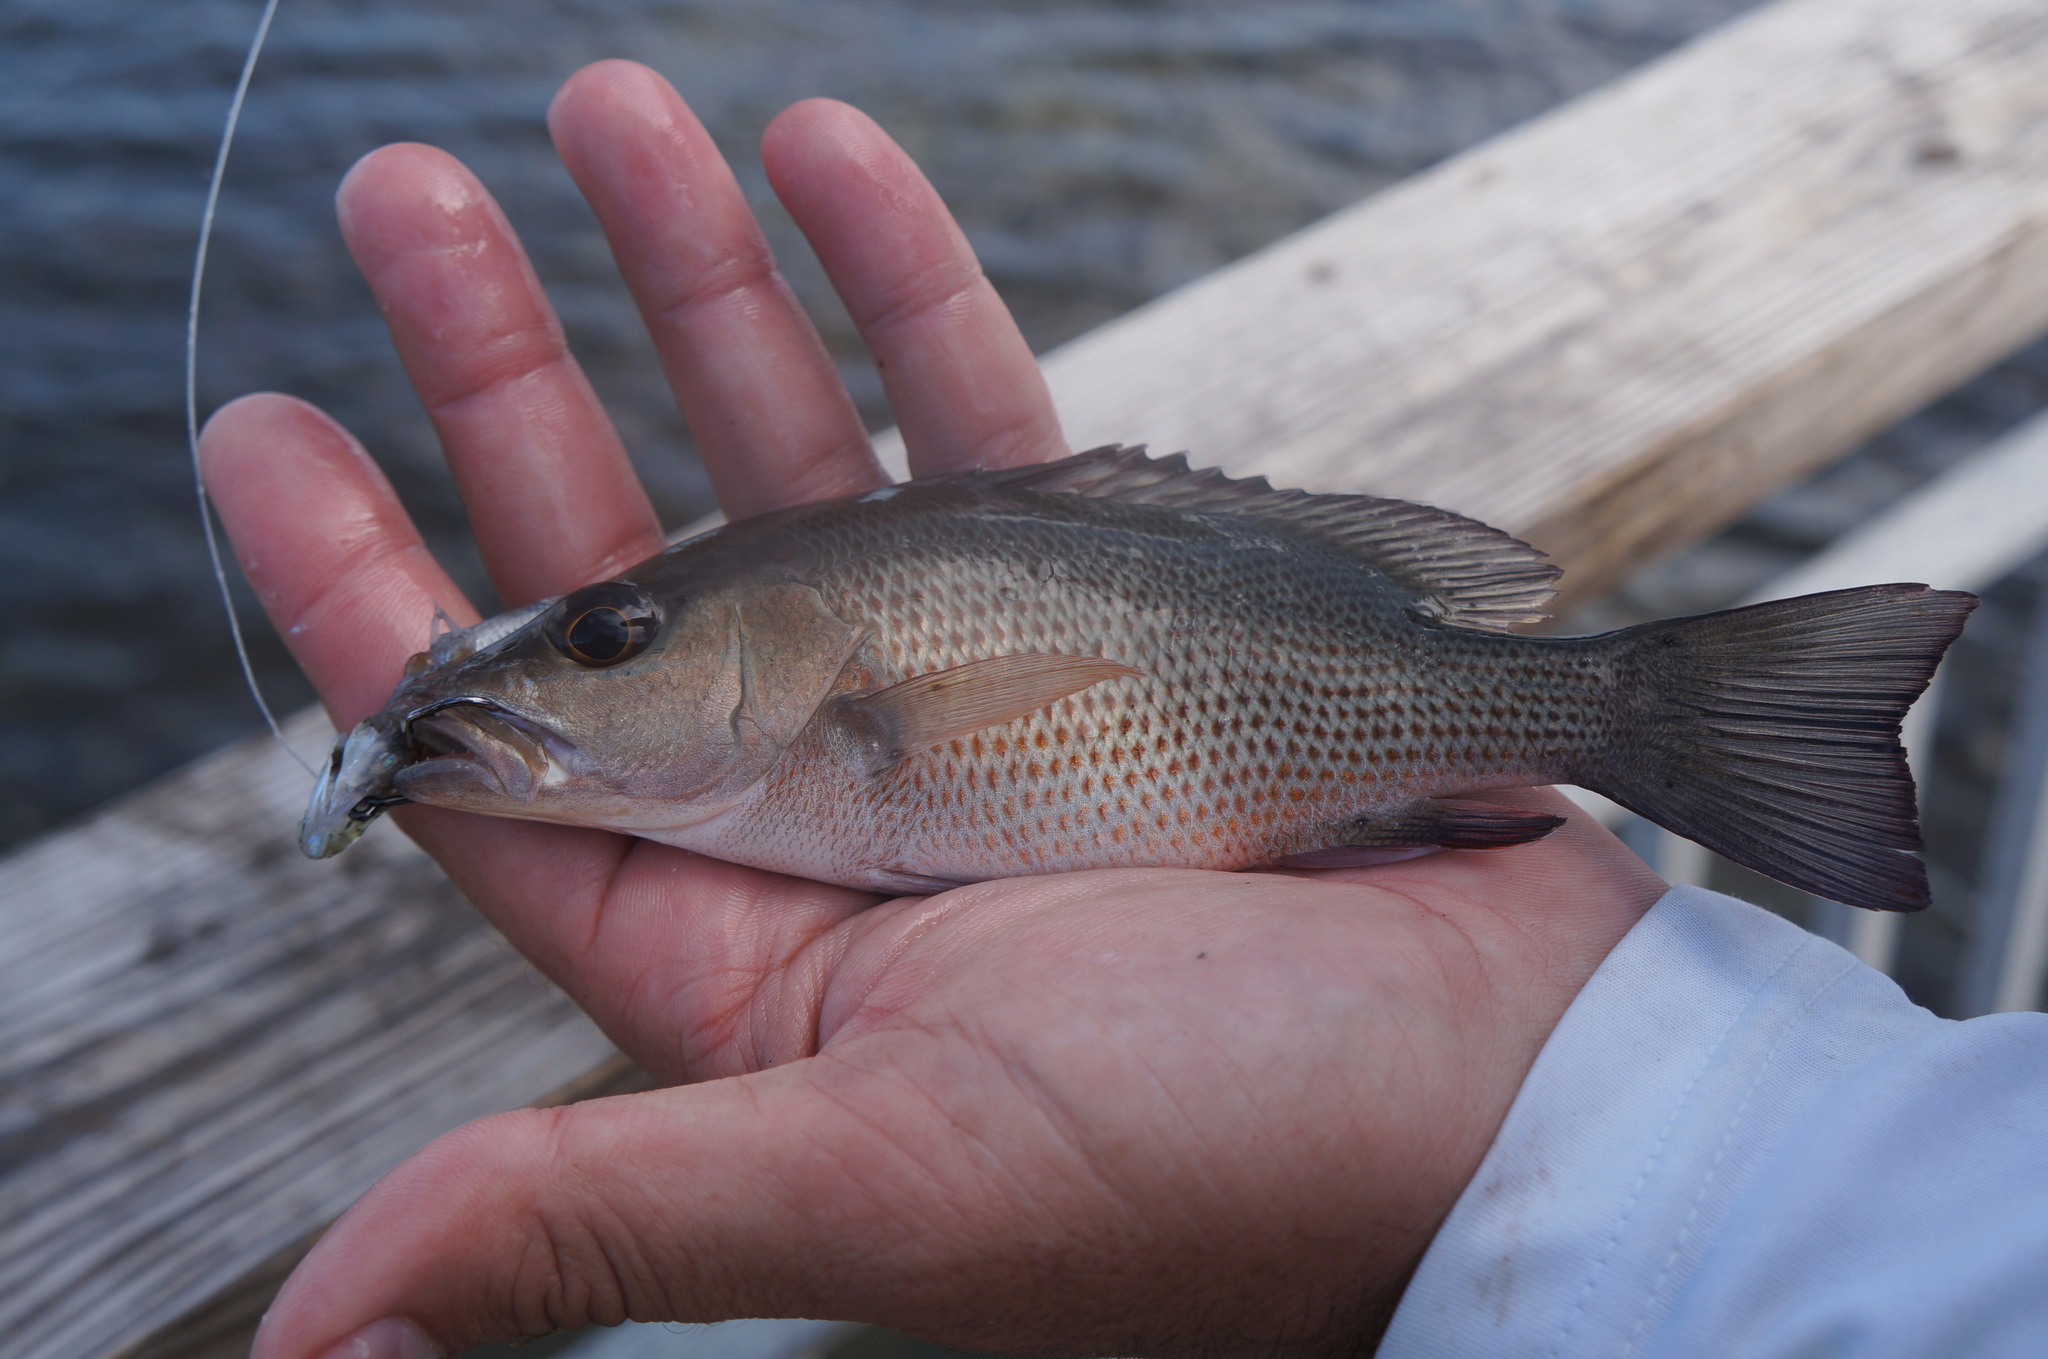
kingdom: Animalia
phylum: Chordata
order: Perciformes
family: Lutjanidae
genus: Lutjanus
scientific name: Lutjanus griseus
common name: Gray snapper
